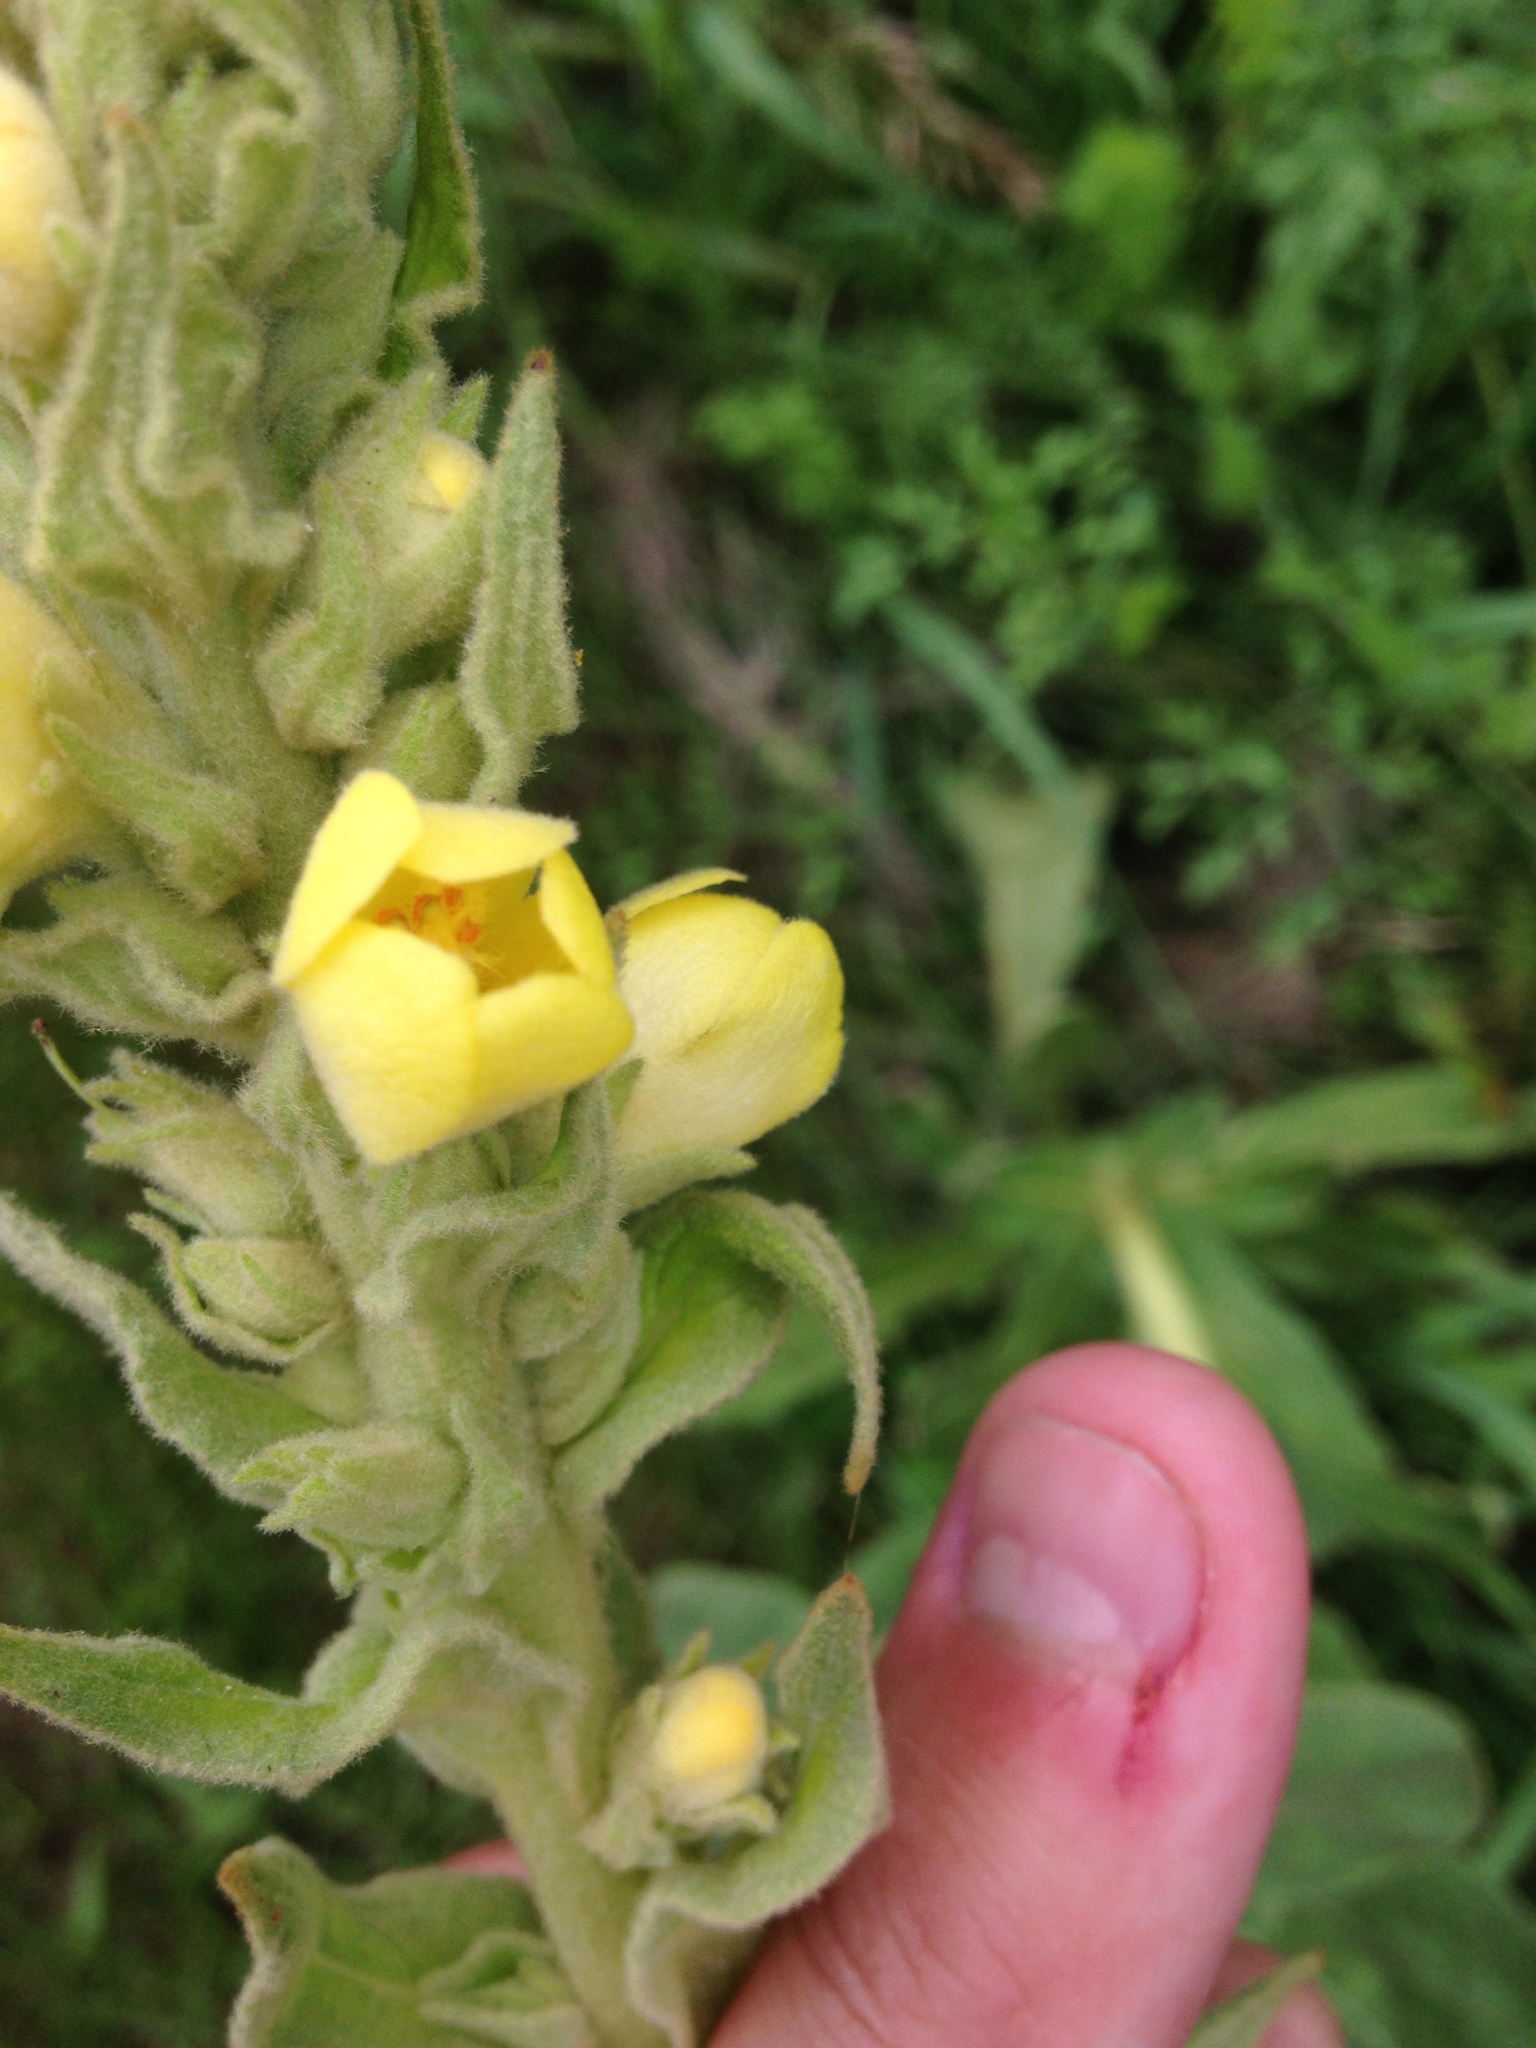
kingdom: Plantae
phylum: Tracheophyta
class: Magnoliopsida
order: Lamiales
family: Scrophulariaceae
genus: Verbascum
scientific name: Verbascum thapsus
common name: Common mullein
